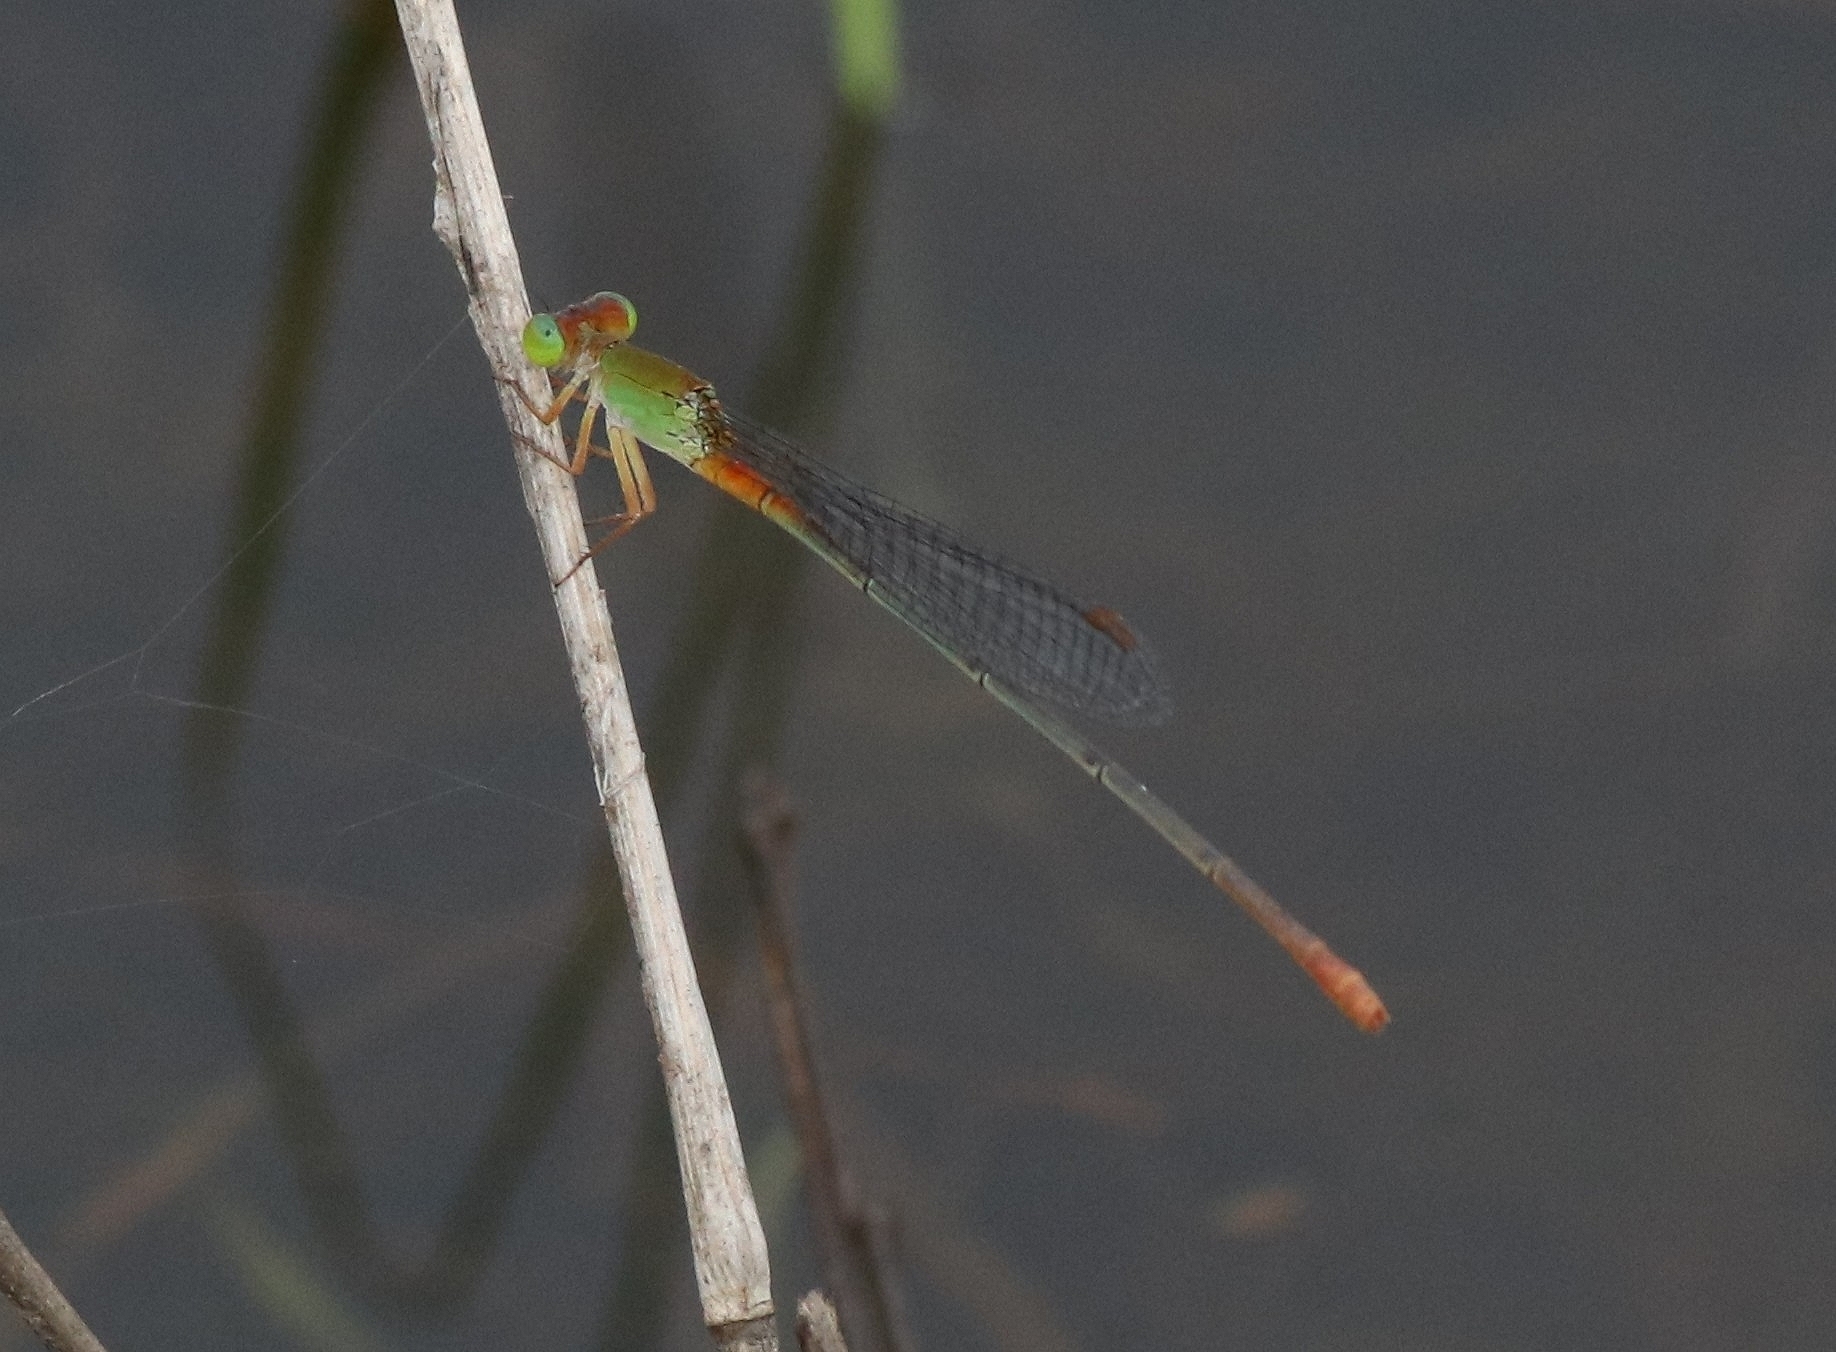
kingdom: Animalia
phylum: Arthropoda
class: Insecta
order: Odonata
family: Coenagrionidae
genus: Ceriagrion
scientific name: Ceriagrion cerinorubellum
